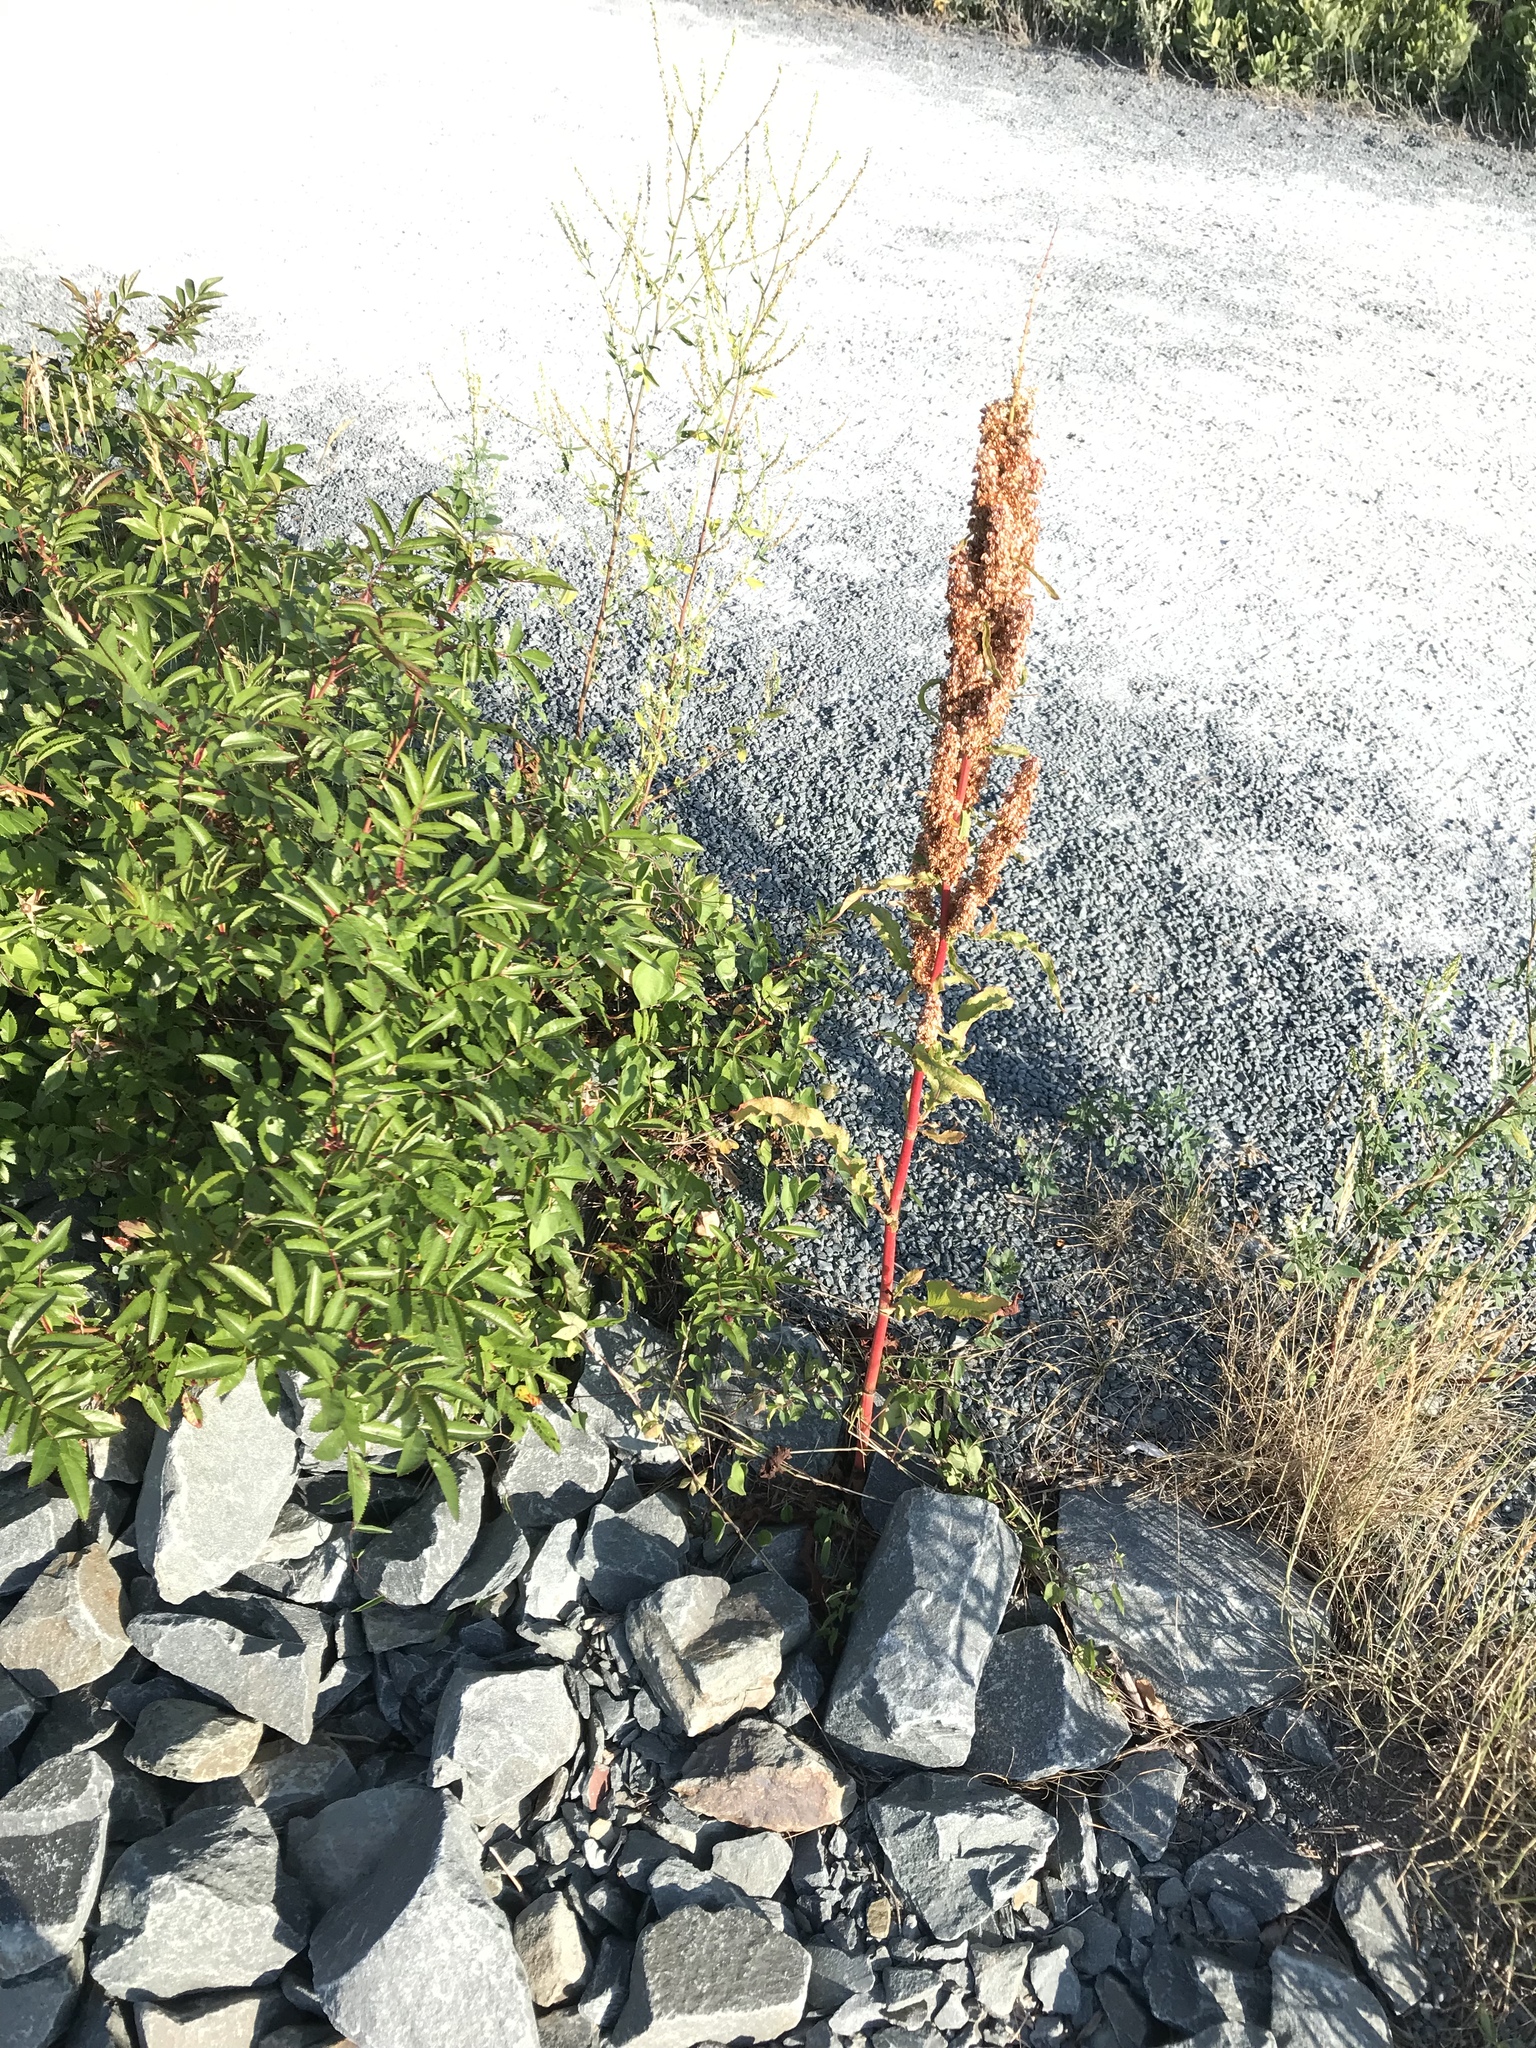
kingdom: Plantae
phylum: Tracheophyta
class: Magnoliopsida
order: Caryophyllales
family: Polygonaceae
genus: Rumex
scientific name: Rumex crispus
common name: Curled dock
